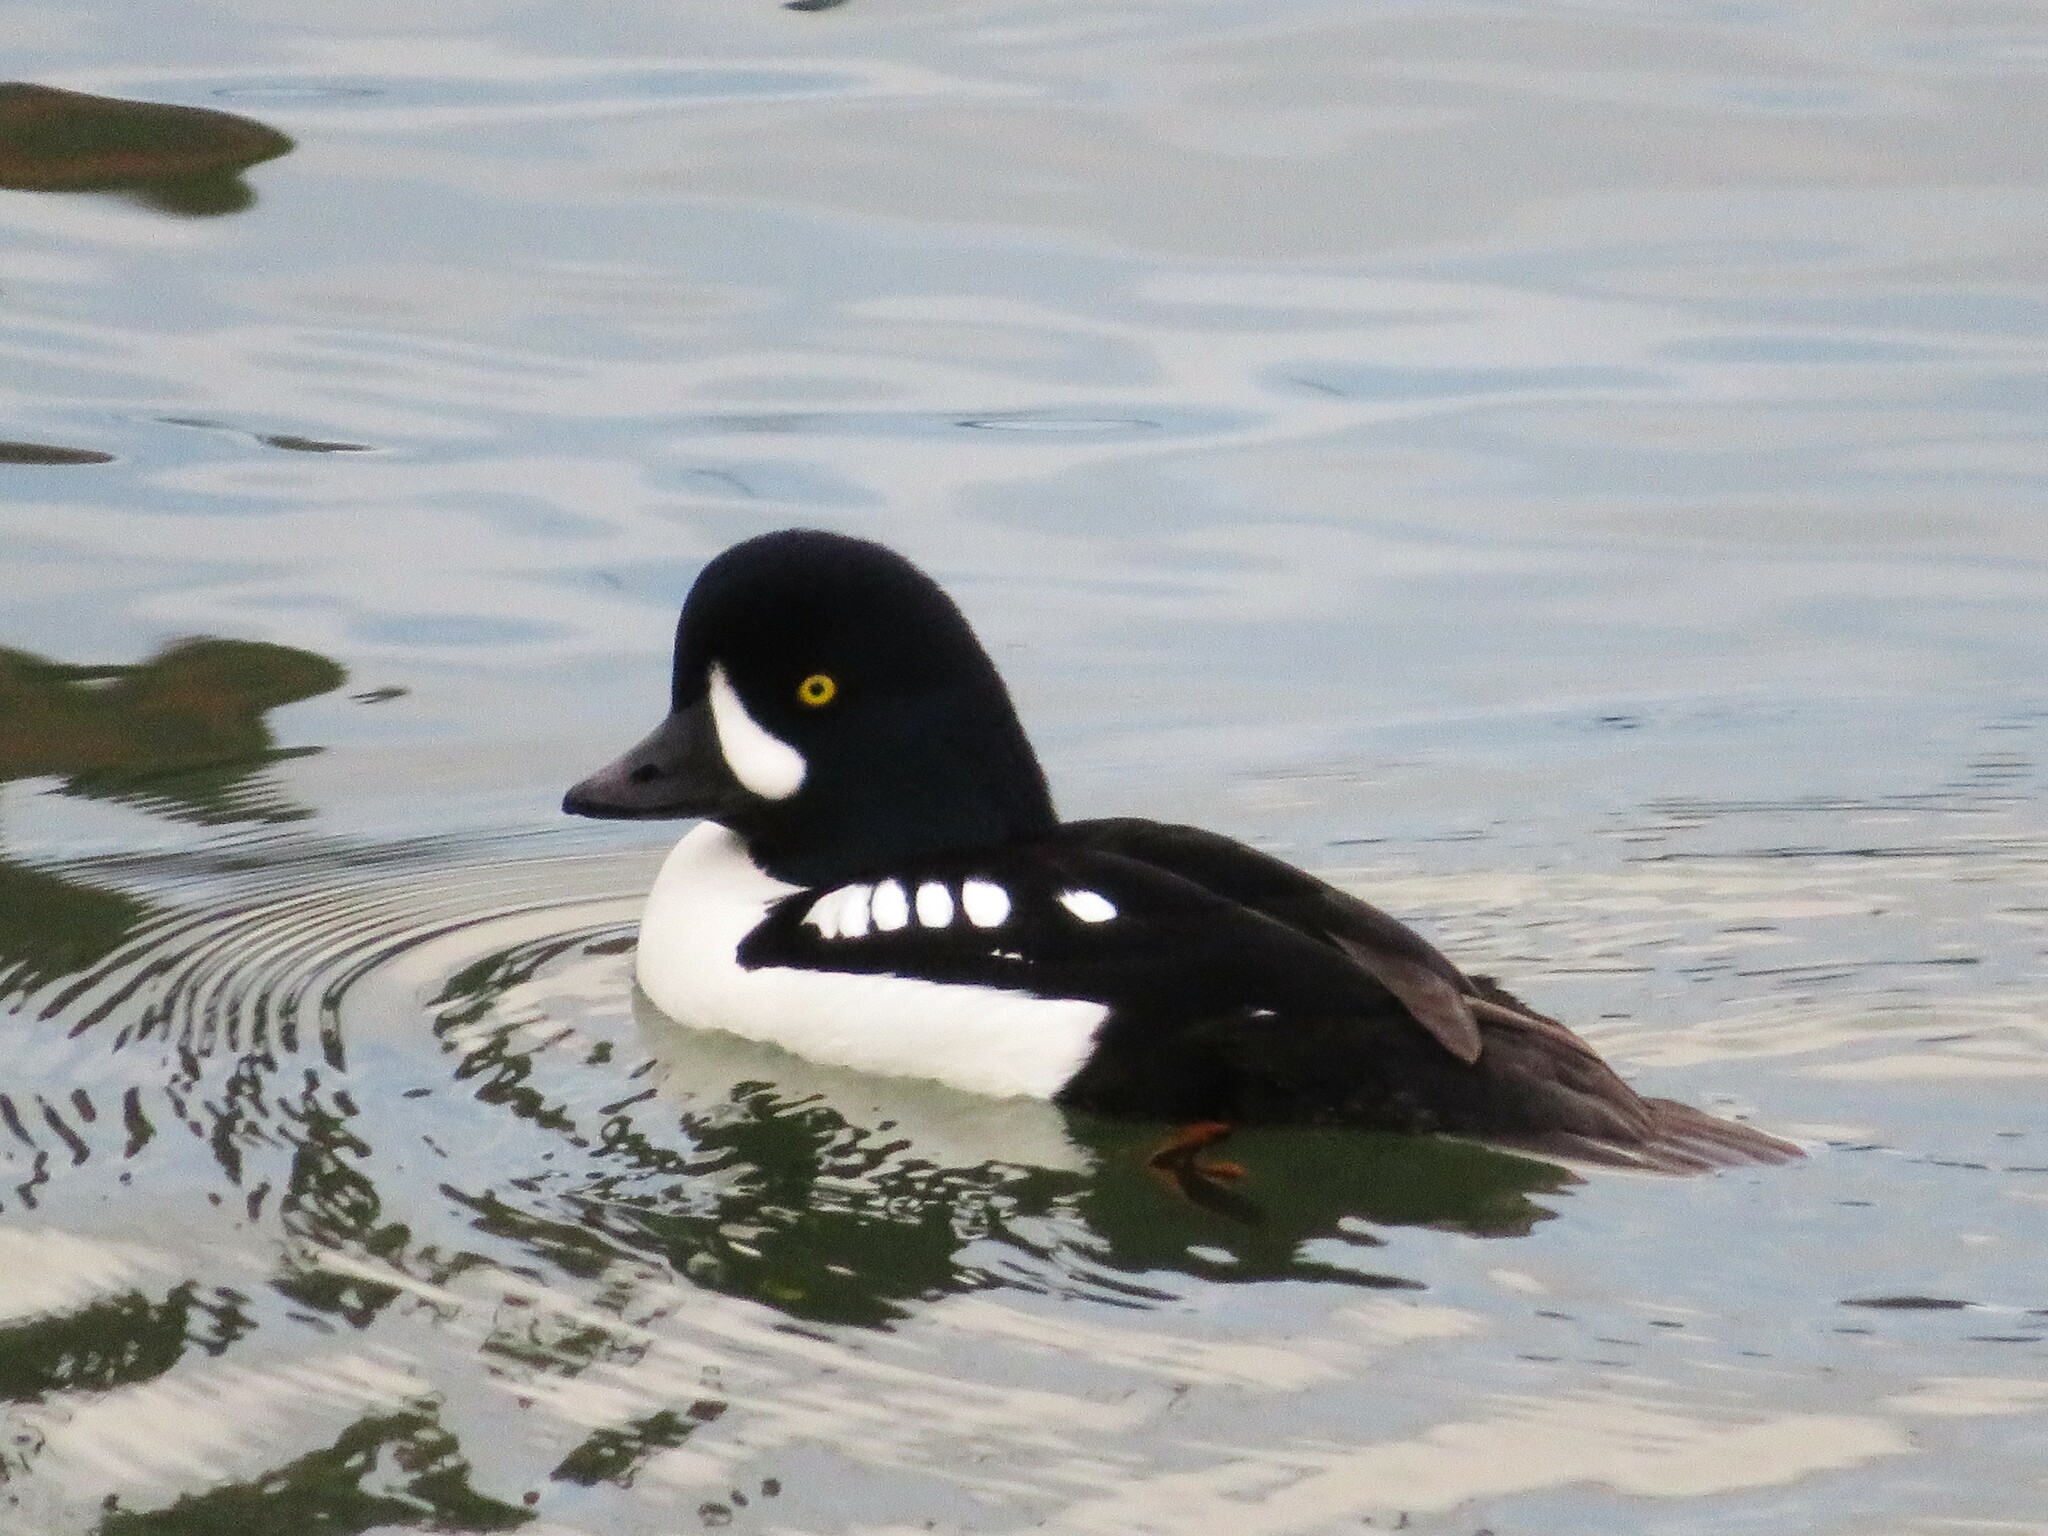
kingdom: Animalia
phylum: Chordata
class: Aves
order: Anseriformes
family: Anatidae
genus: Bucephala
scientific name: Bucephala islandica
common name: Barrow's goldeneye
